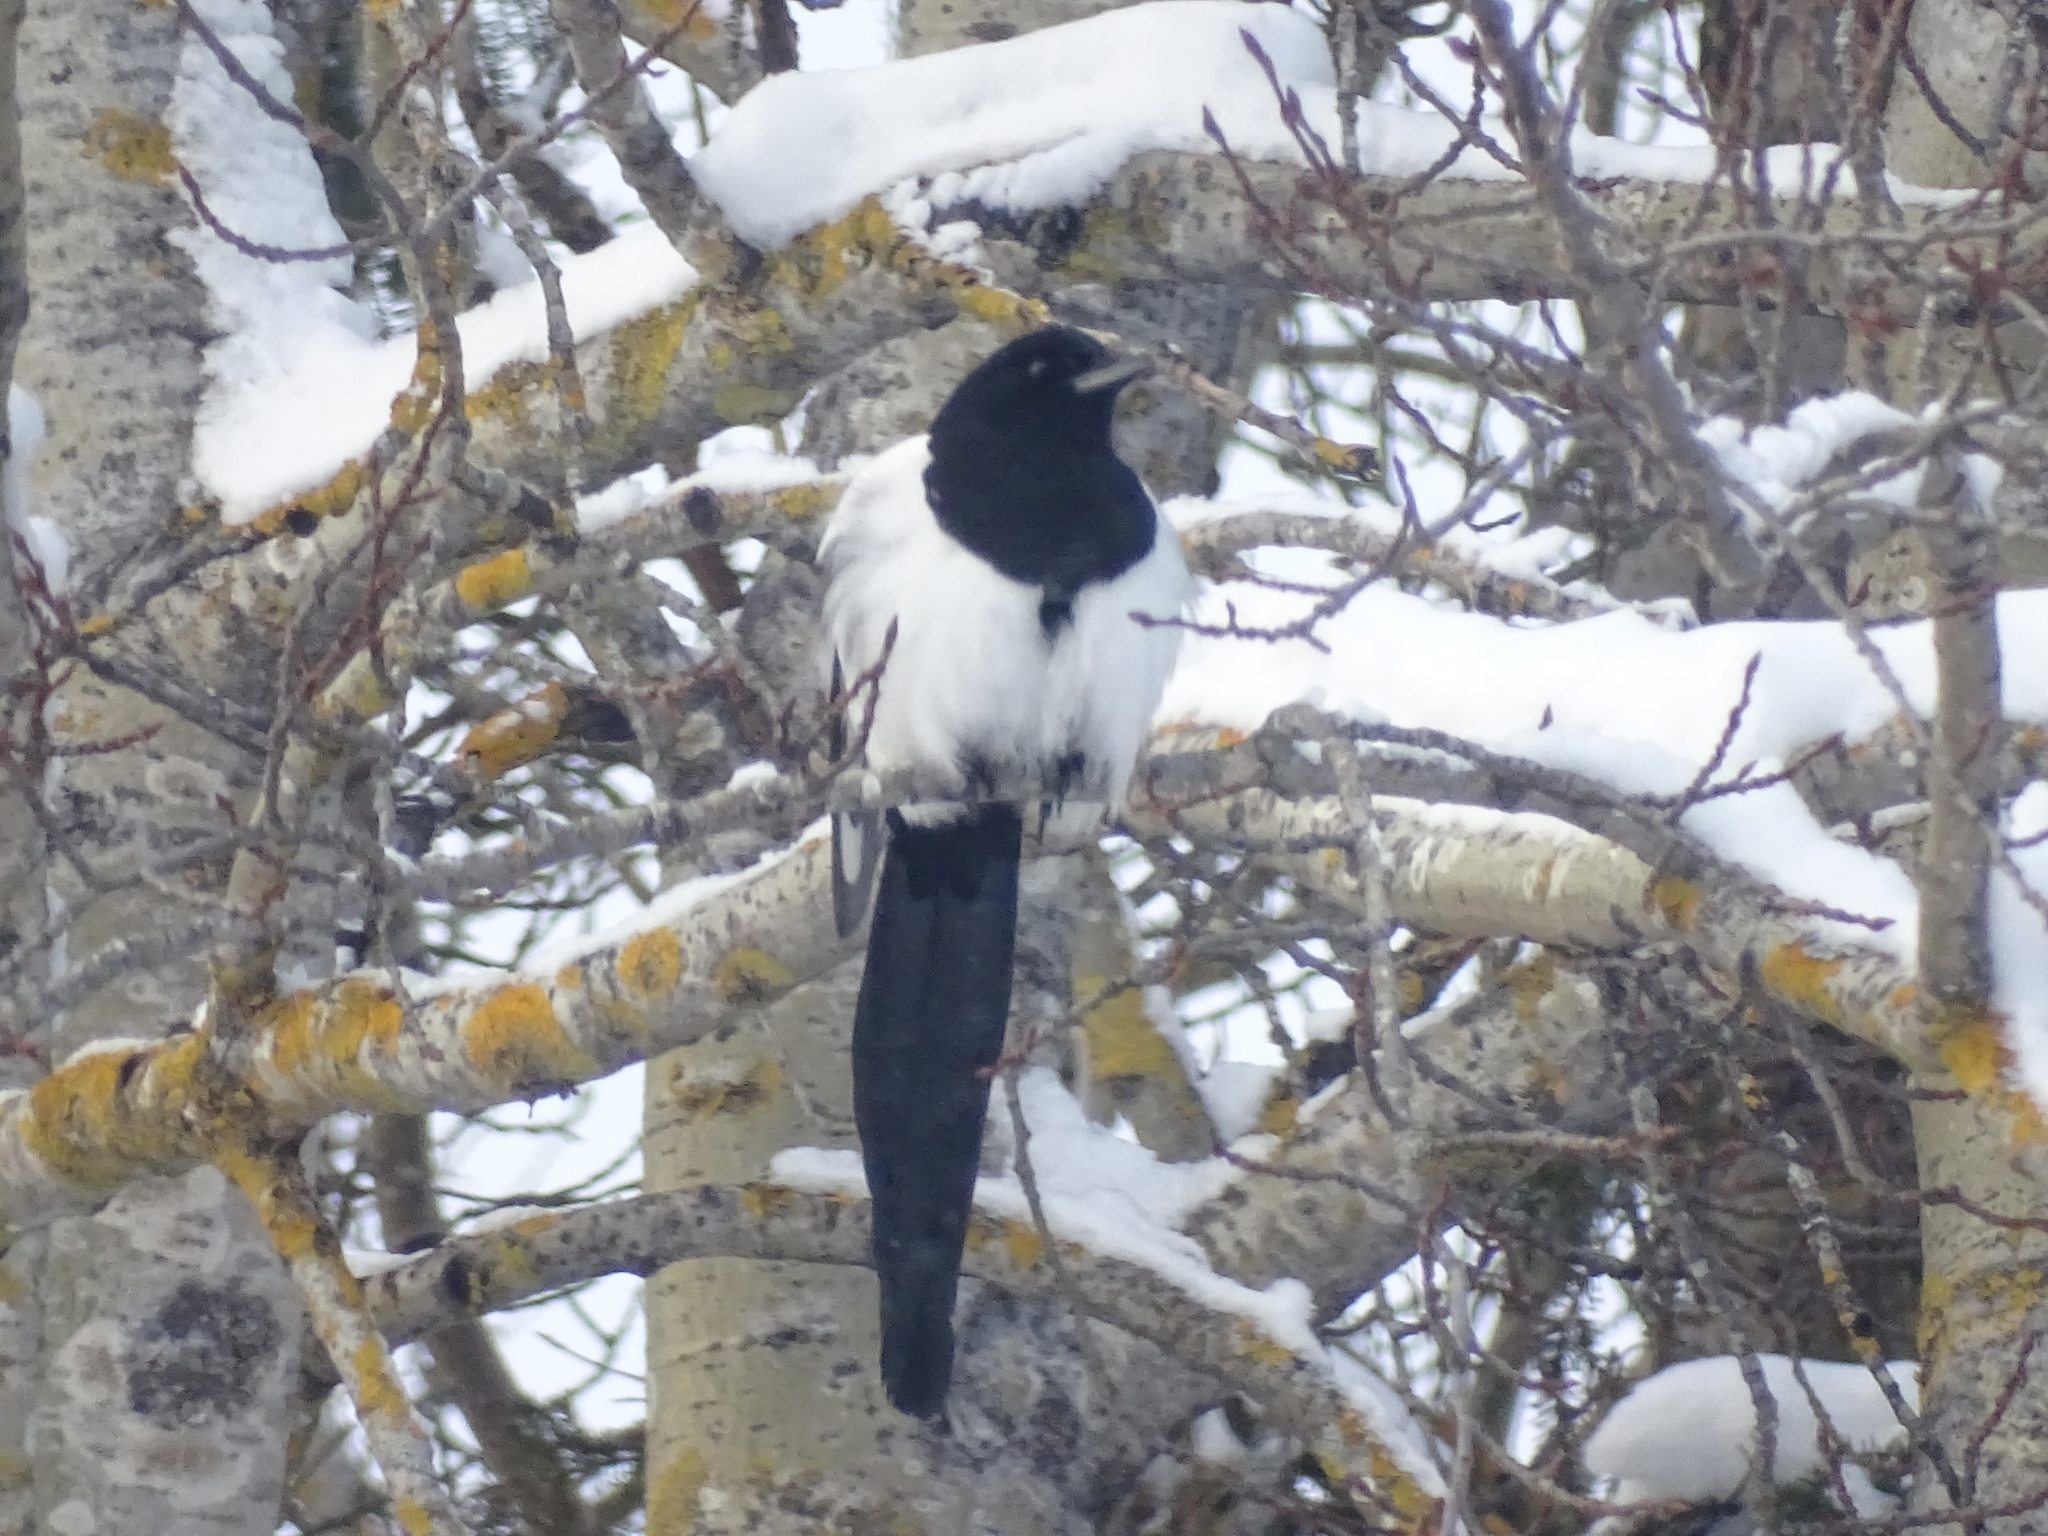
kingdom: Animalia
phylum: Chordata
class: Aves
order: Passeriformes
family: Corvidae
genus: Pica
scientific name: Pica pica
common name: Eurasian magpie
